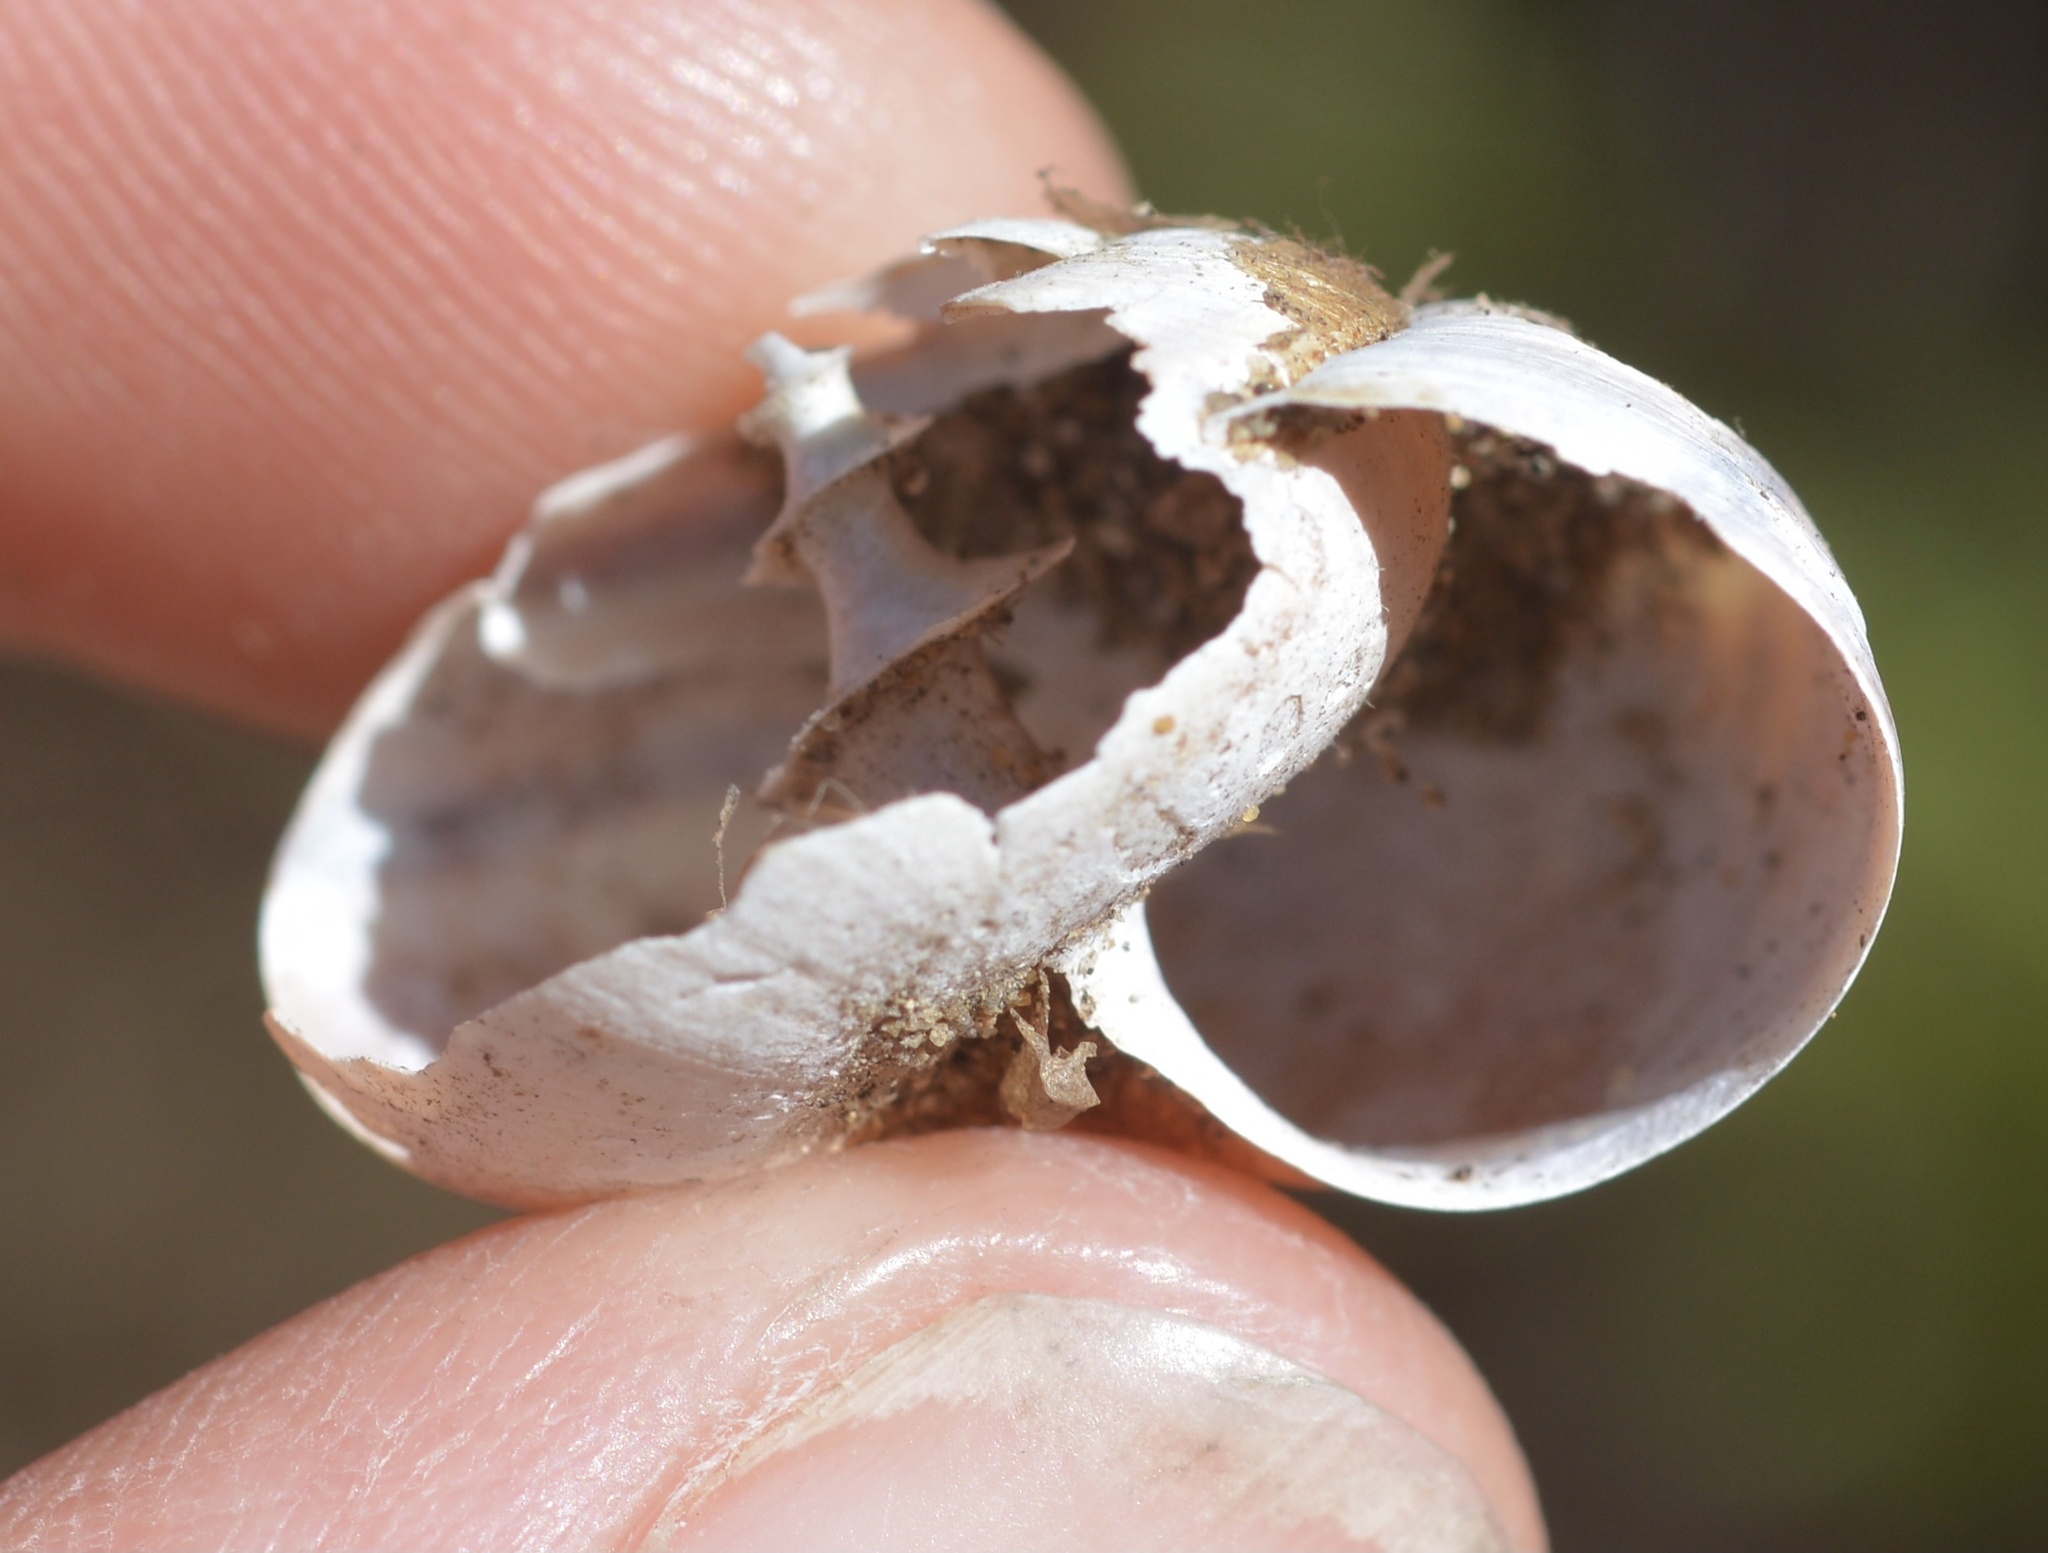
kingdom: Animalia
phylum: Mollusca
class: Gastropoda
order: Stylommatophora
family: Xanthonychidae
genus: Helminthoglypta
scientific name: Helminthoglypta umbilicata
